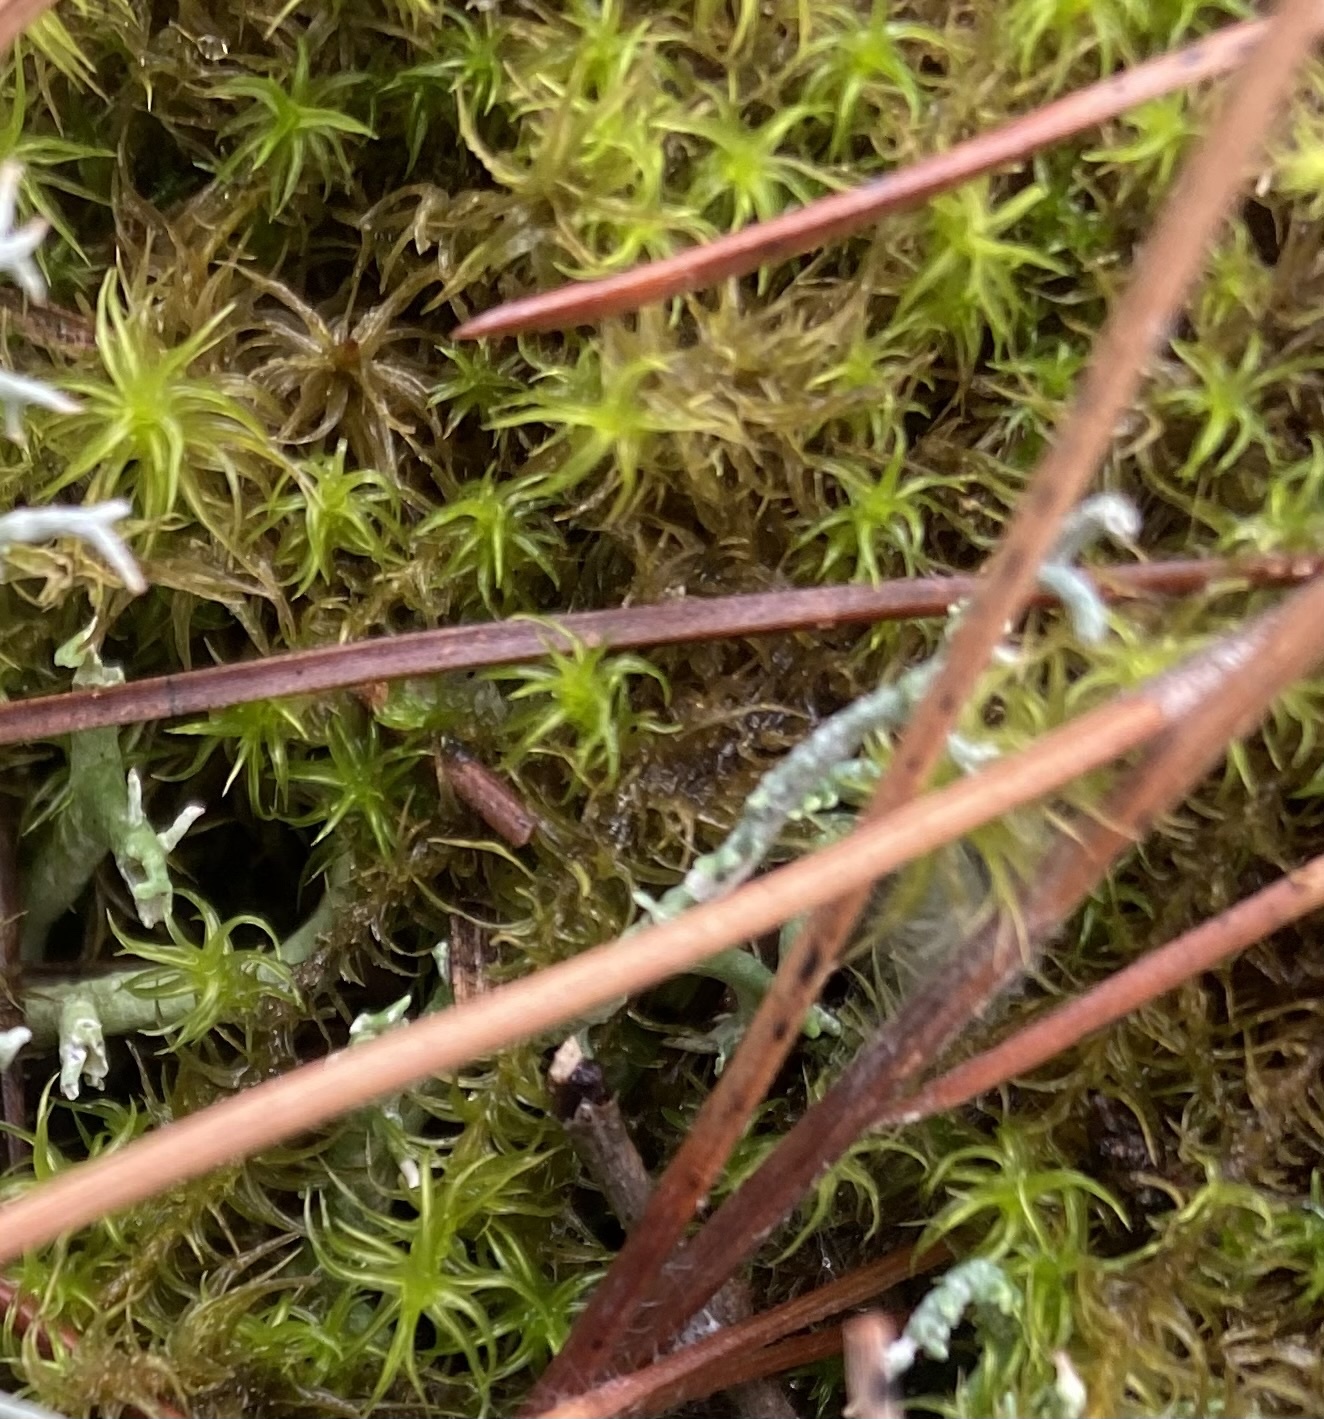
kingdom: Plantae
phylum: Bryophyta
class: Bryopsida
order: Pottiales
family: Pottiaceae
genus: Pleurochaete
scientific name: Pleurochaete squarrosa
